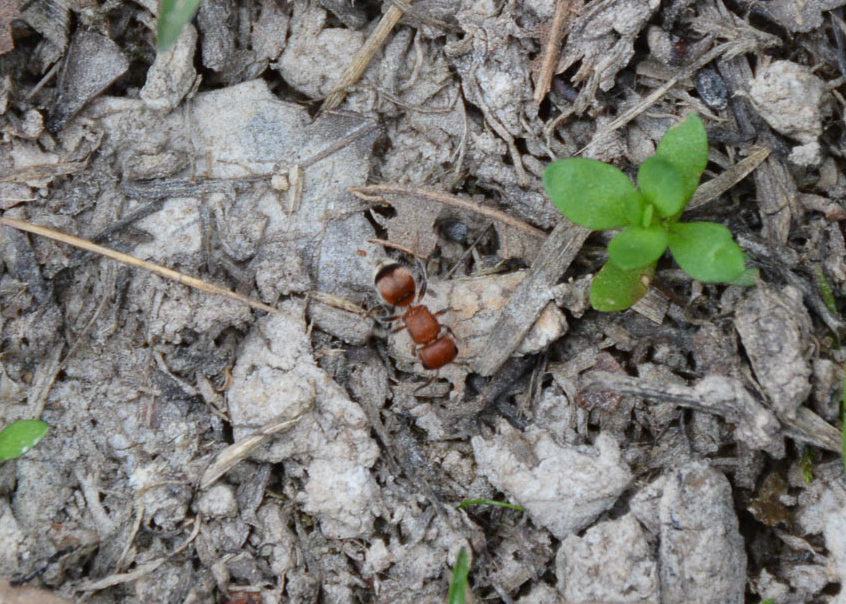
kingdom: Animalia
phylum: Arthropoda
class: Insecta
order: Hymenoptera
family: Mutillidae
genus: Pseudomethoca
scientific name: Pseudomethoca
